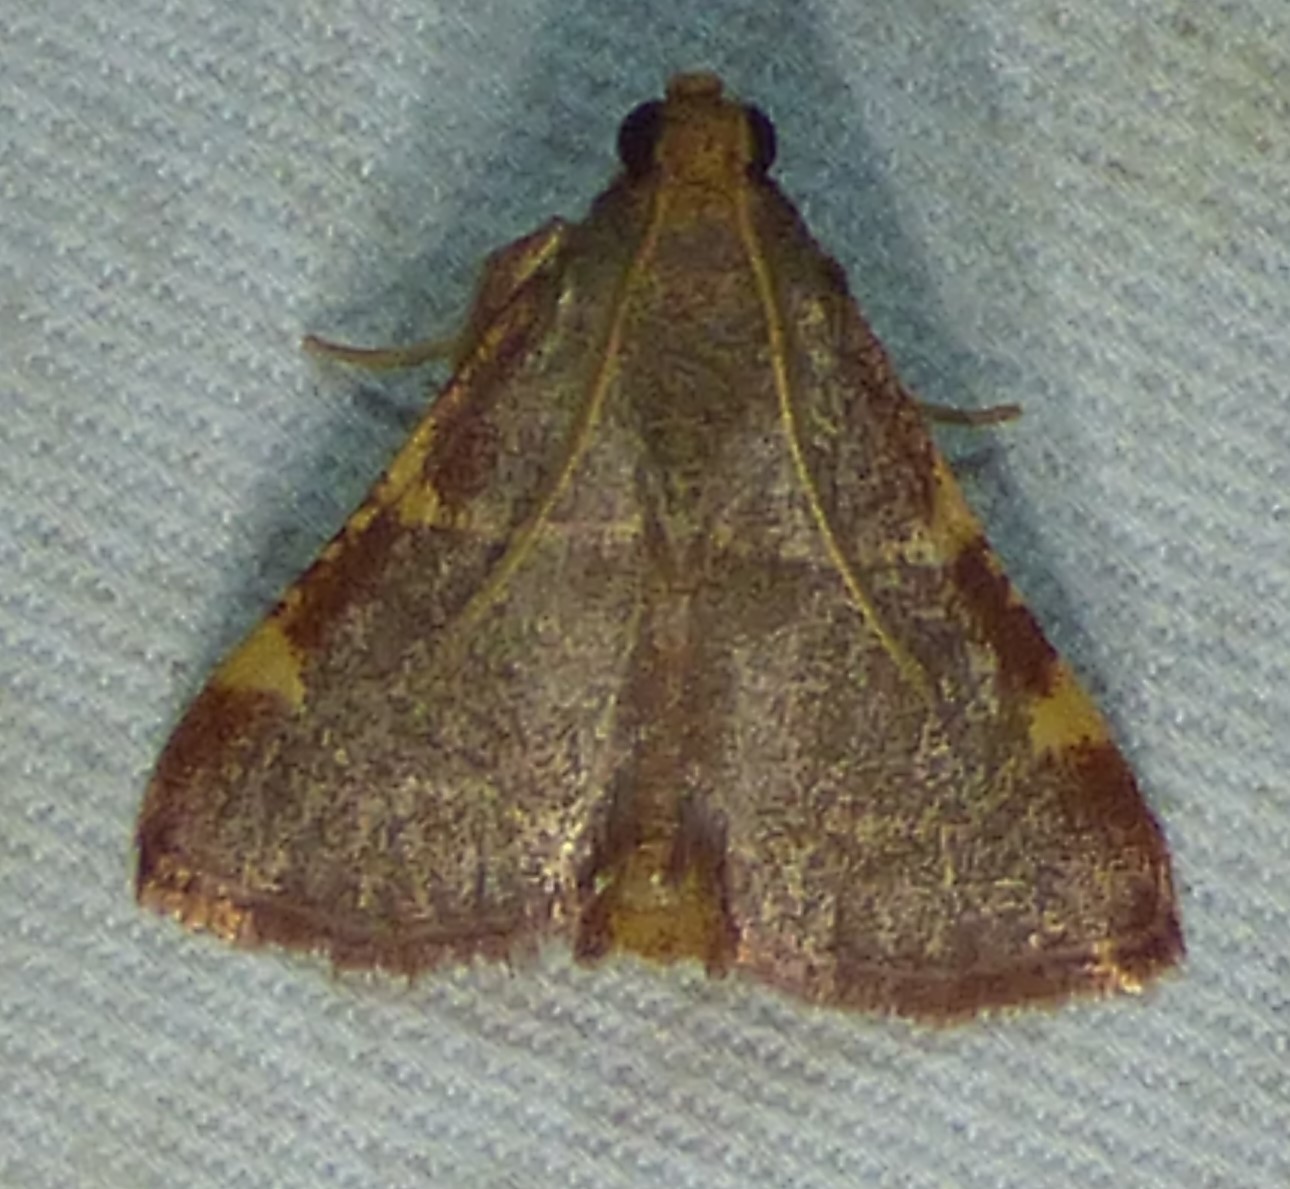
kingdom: Animalia
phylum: Arthropoda
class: Insecta
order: Lepidoptera
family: Pyralidae
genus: Hypsopygia
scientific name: Hypsopygia binodulalis
